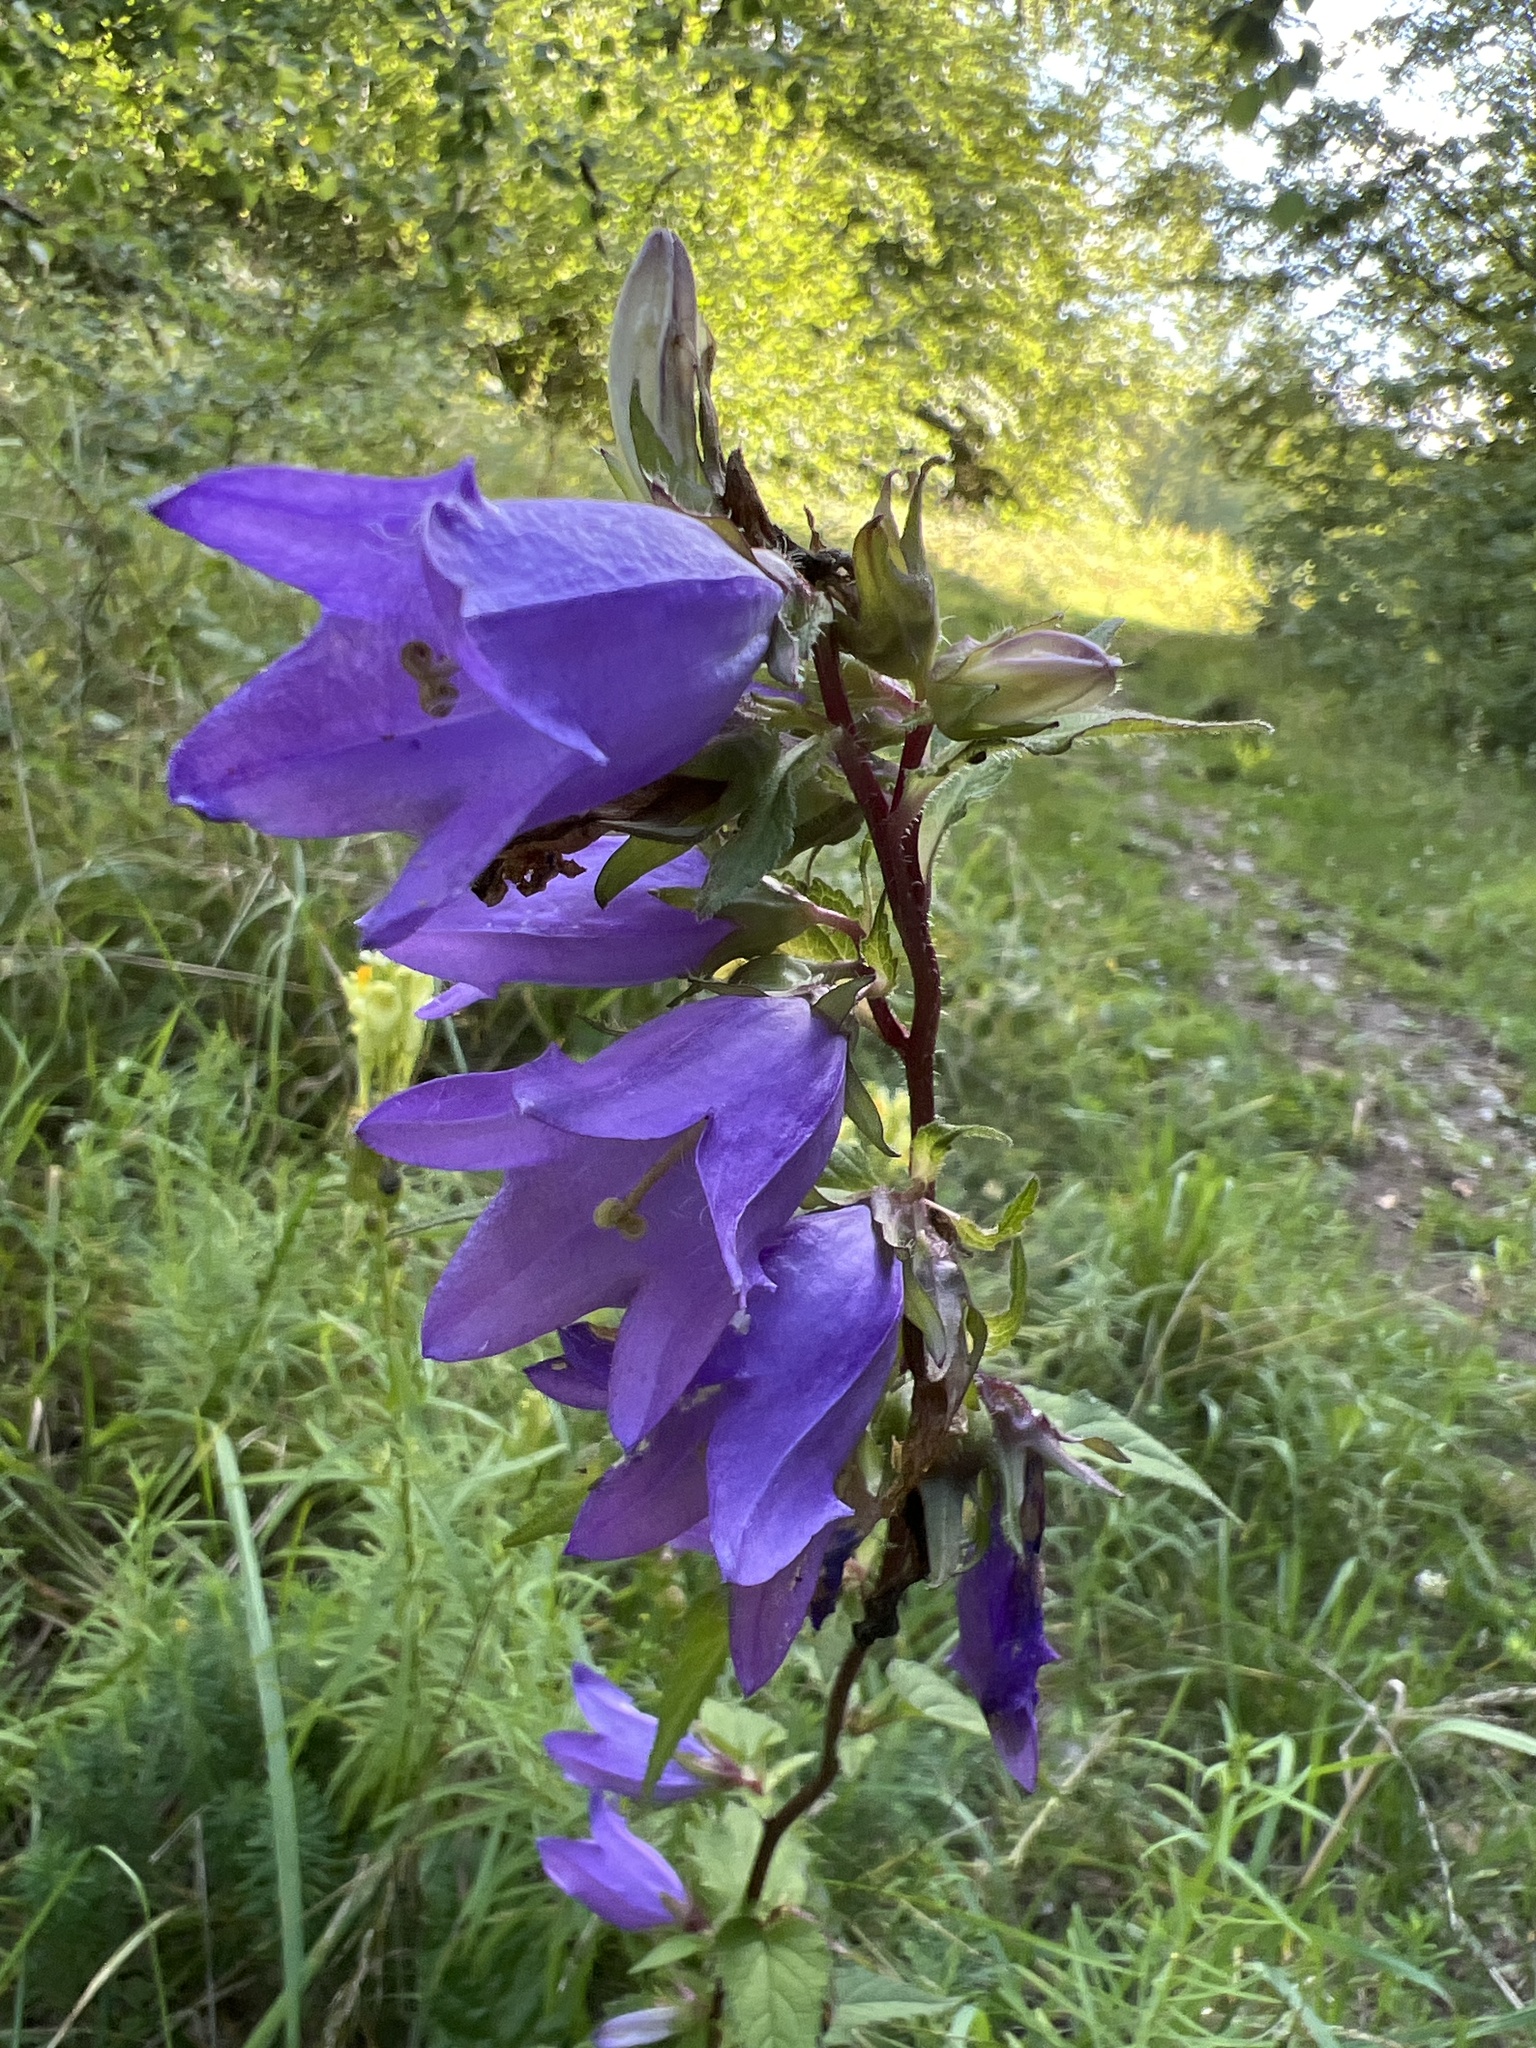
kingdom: Plantae
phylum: Tracheophyta
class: Magnoliopsida
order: Asterales
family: Campanulaceae
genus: Campanula
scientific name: Campanula trachelium
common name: Nettle-leaved bellflower
